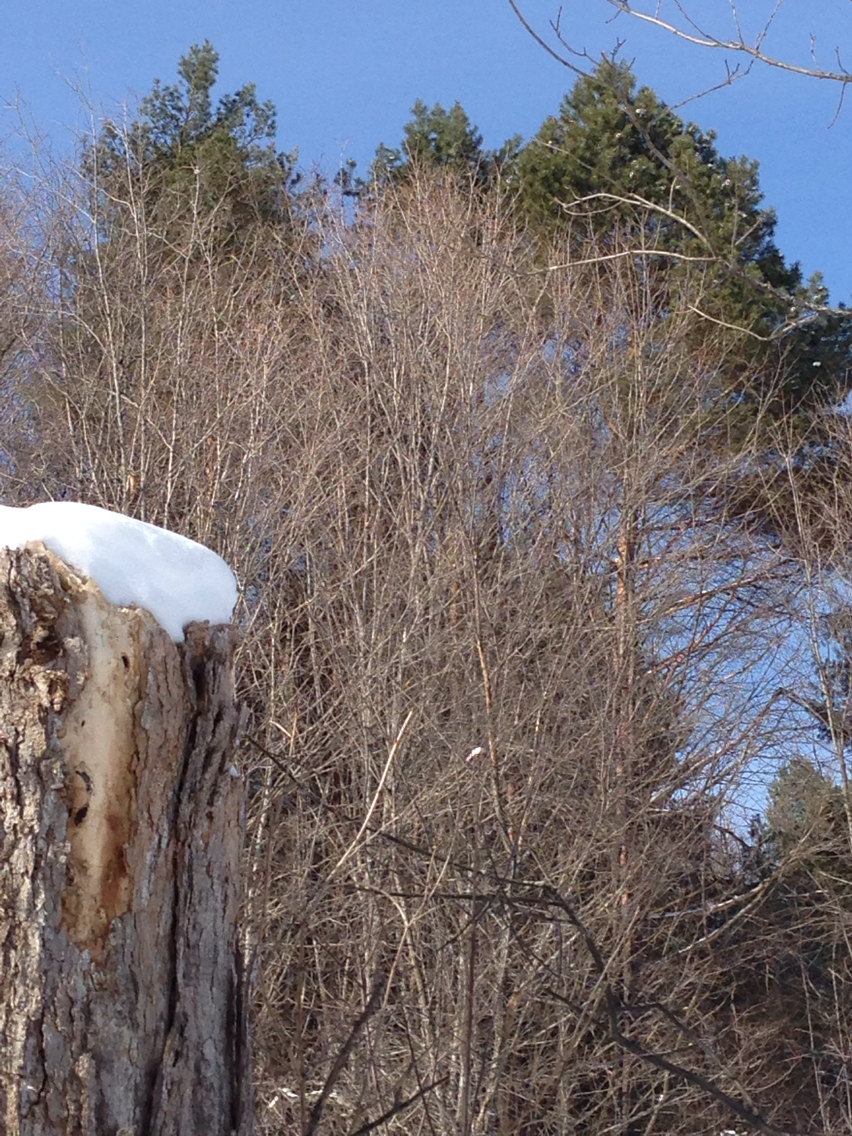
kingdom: Plantae
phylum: Tracheophyta
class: Pinopsida
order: Pinales
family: Pinaceae
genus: Pinus
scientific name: Pinus strobus
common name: Weymouth pine
